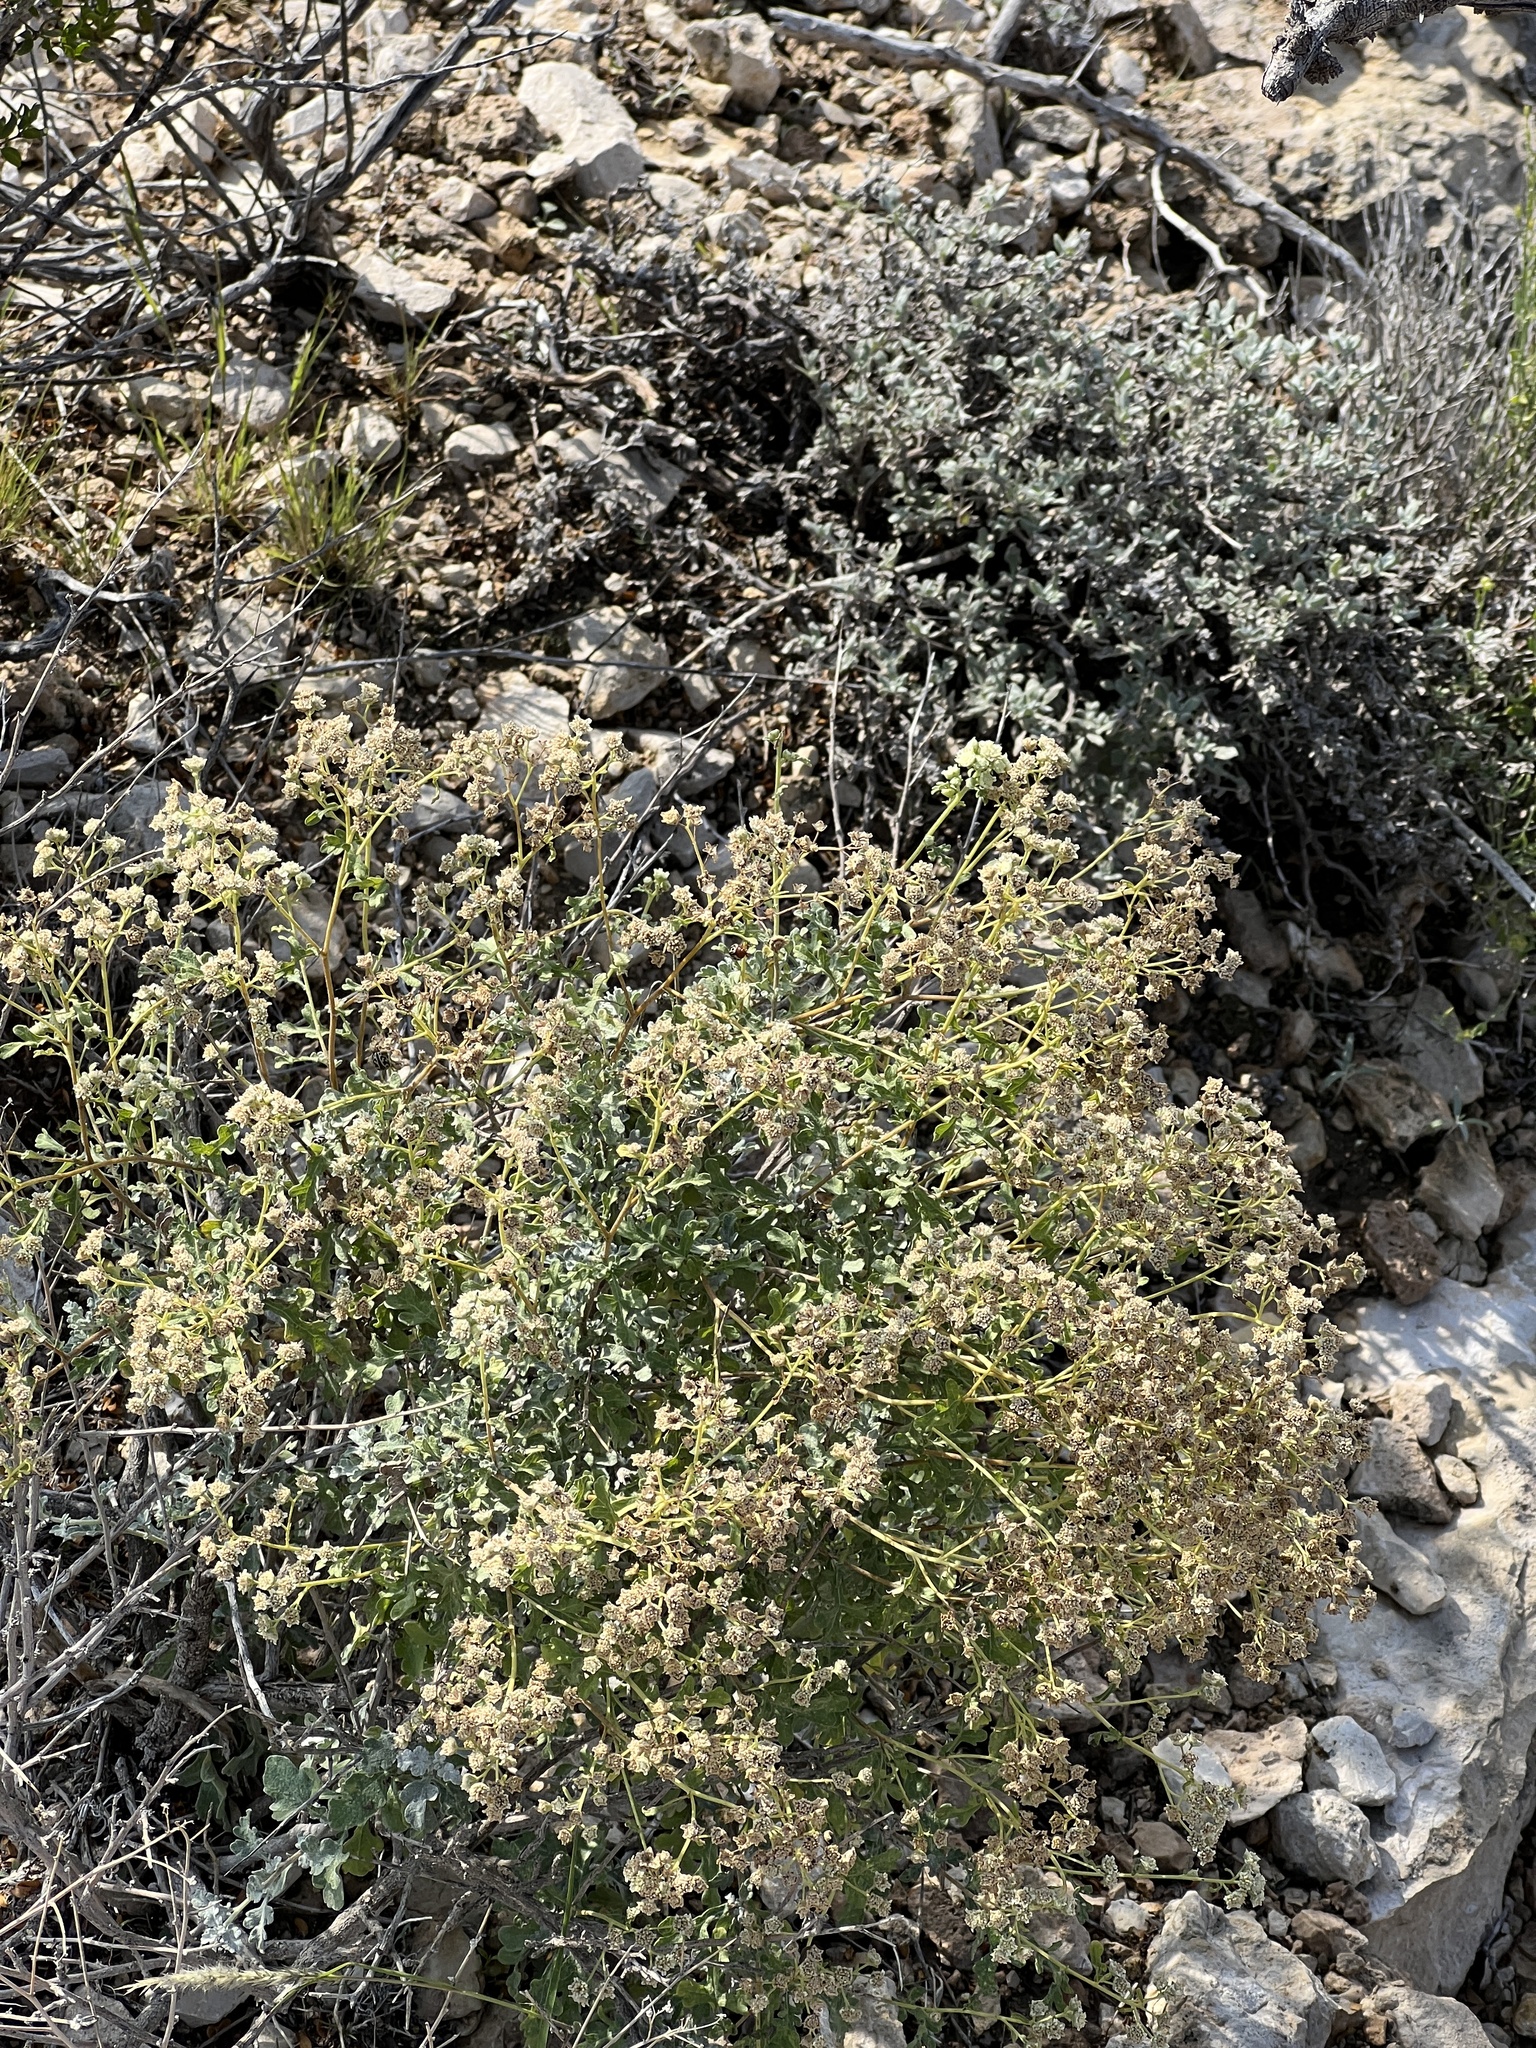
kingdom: Plantae
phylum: Tracheophyta
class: Magnoliopsida
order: Asterales
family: Asteraceae
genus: Parthenium
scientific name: Parthenium incanum
